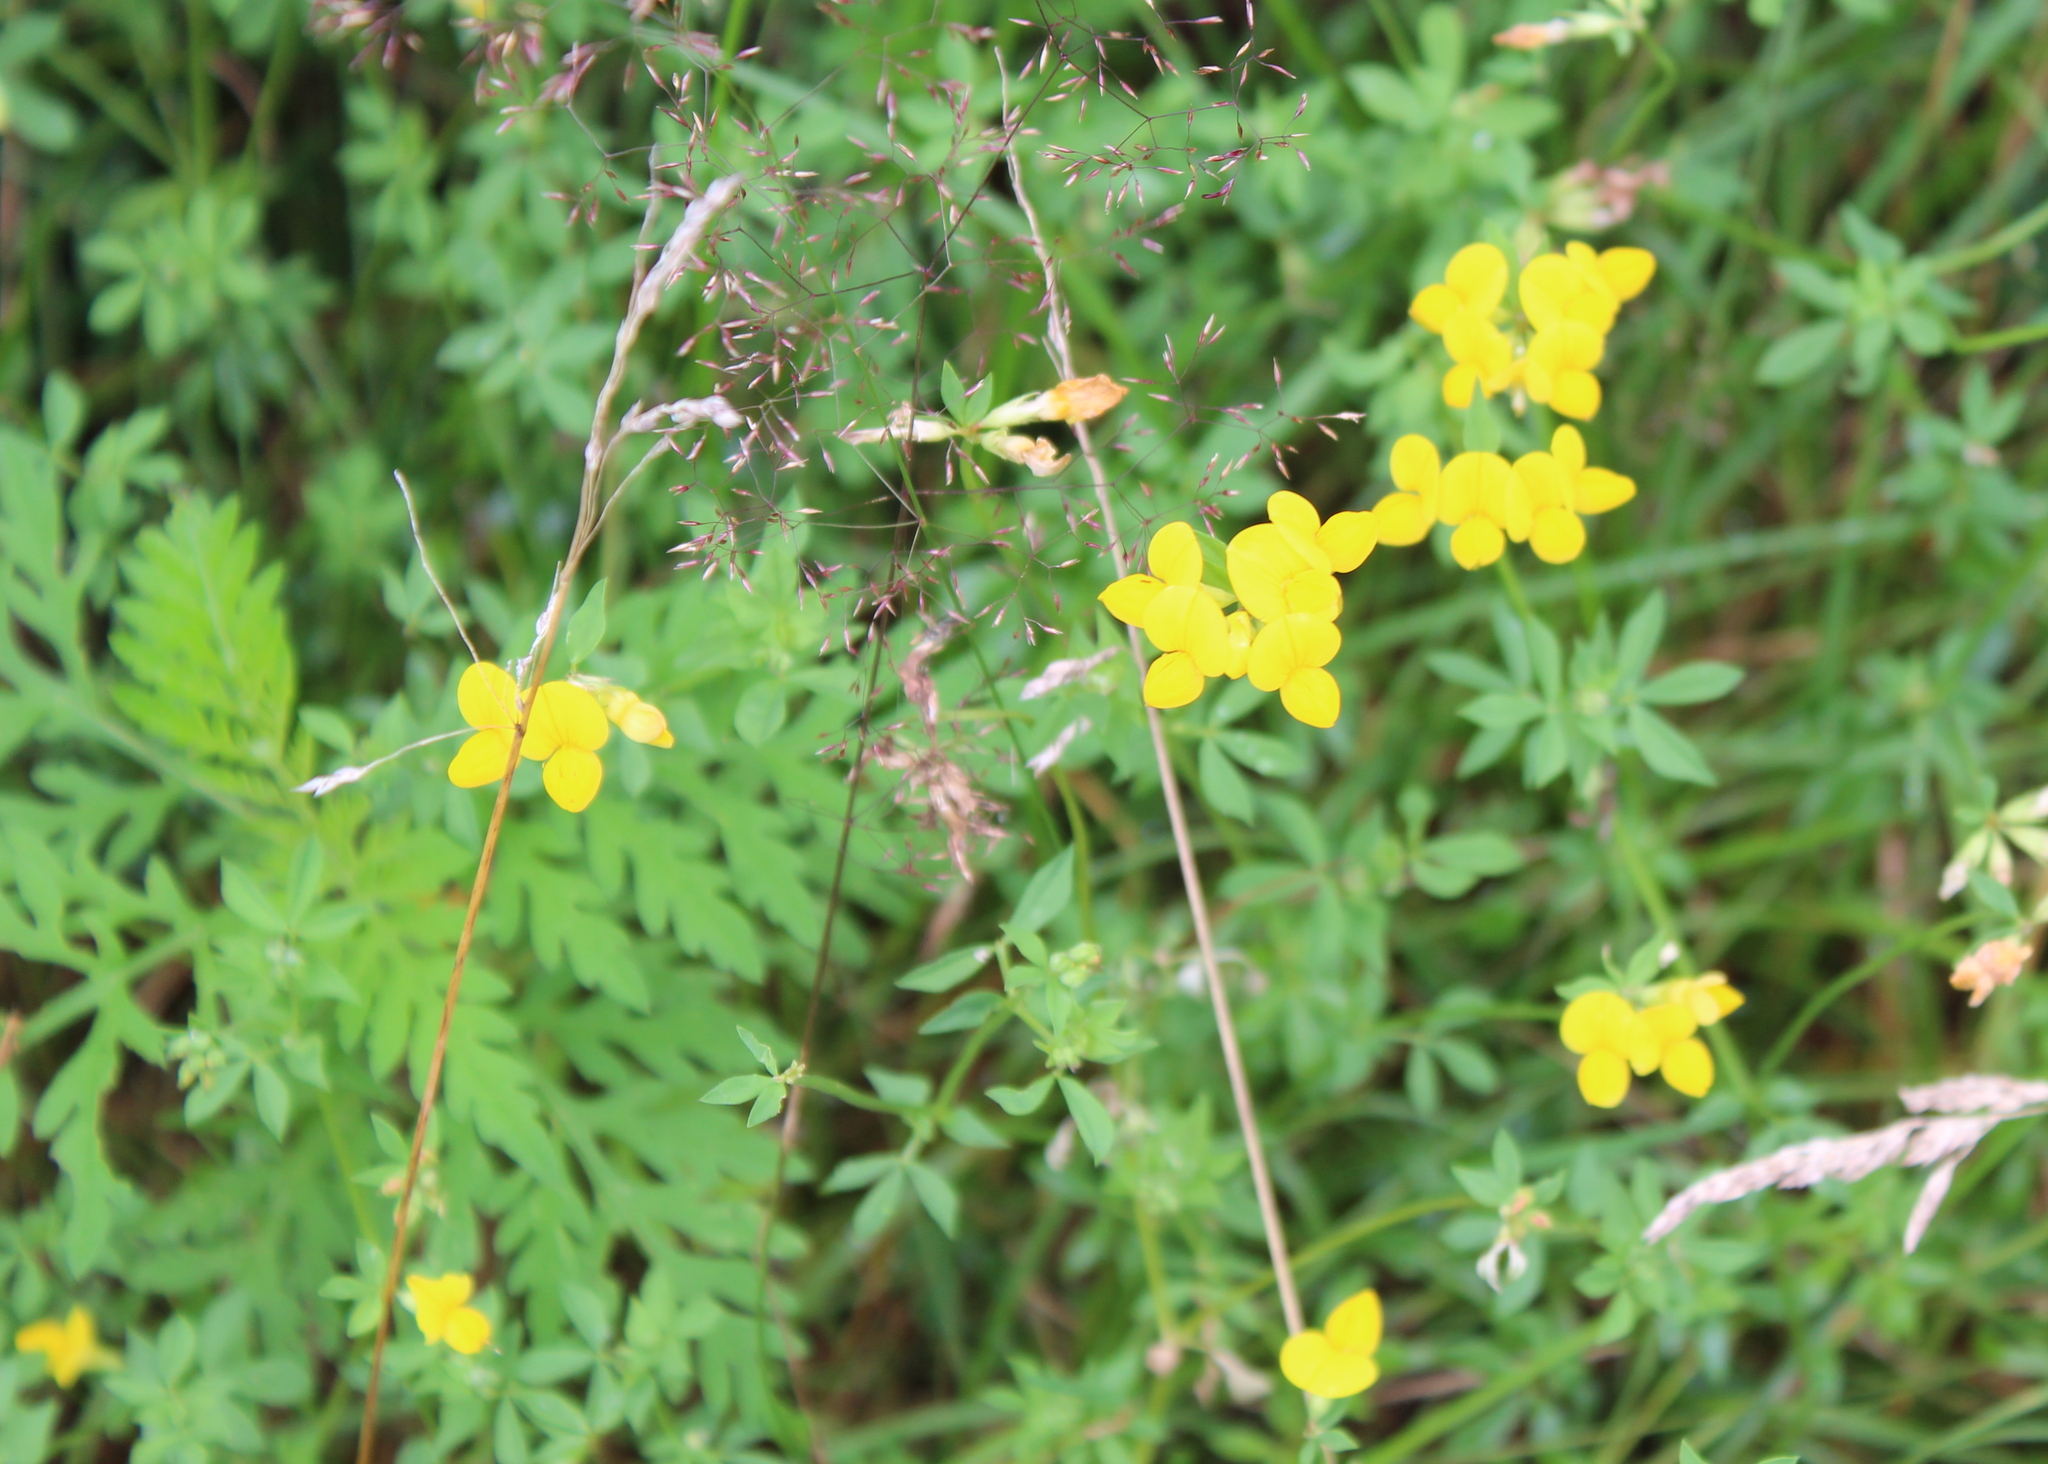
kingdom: Plantae
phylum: Tracheophyta
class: Magnoliopsida
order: Fabales
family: Fabaceae
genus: Lotus
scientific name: Lotus corniculatus
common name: Common bird's-foot-trefoil
